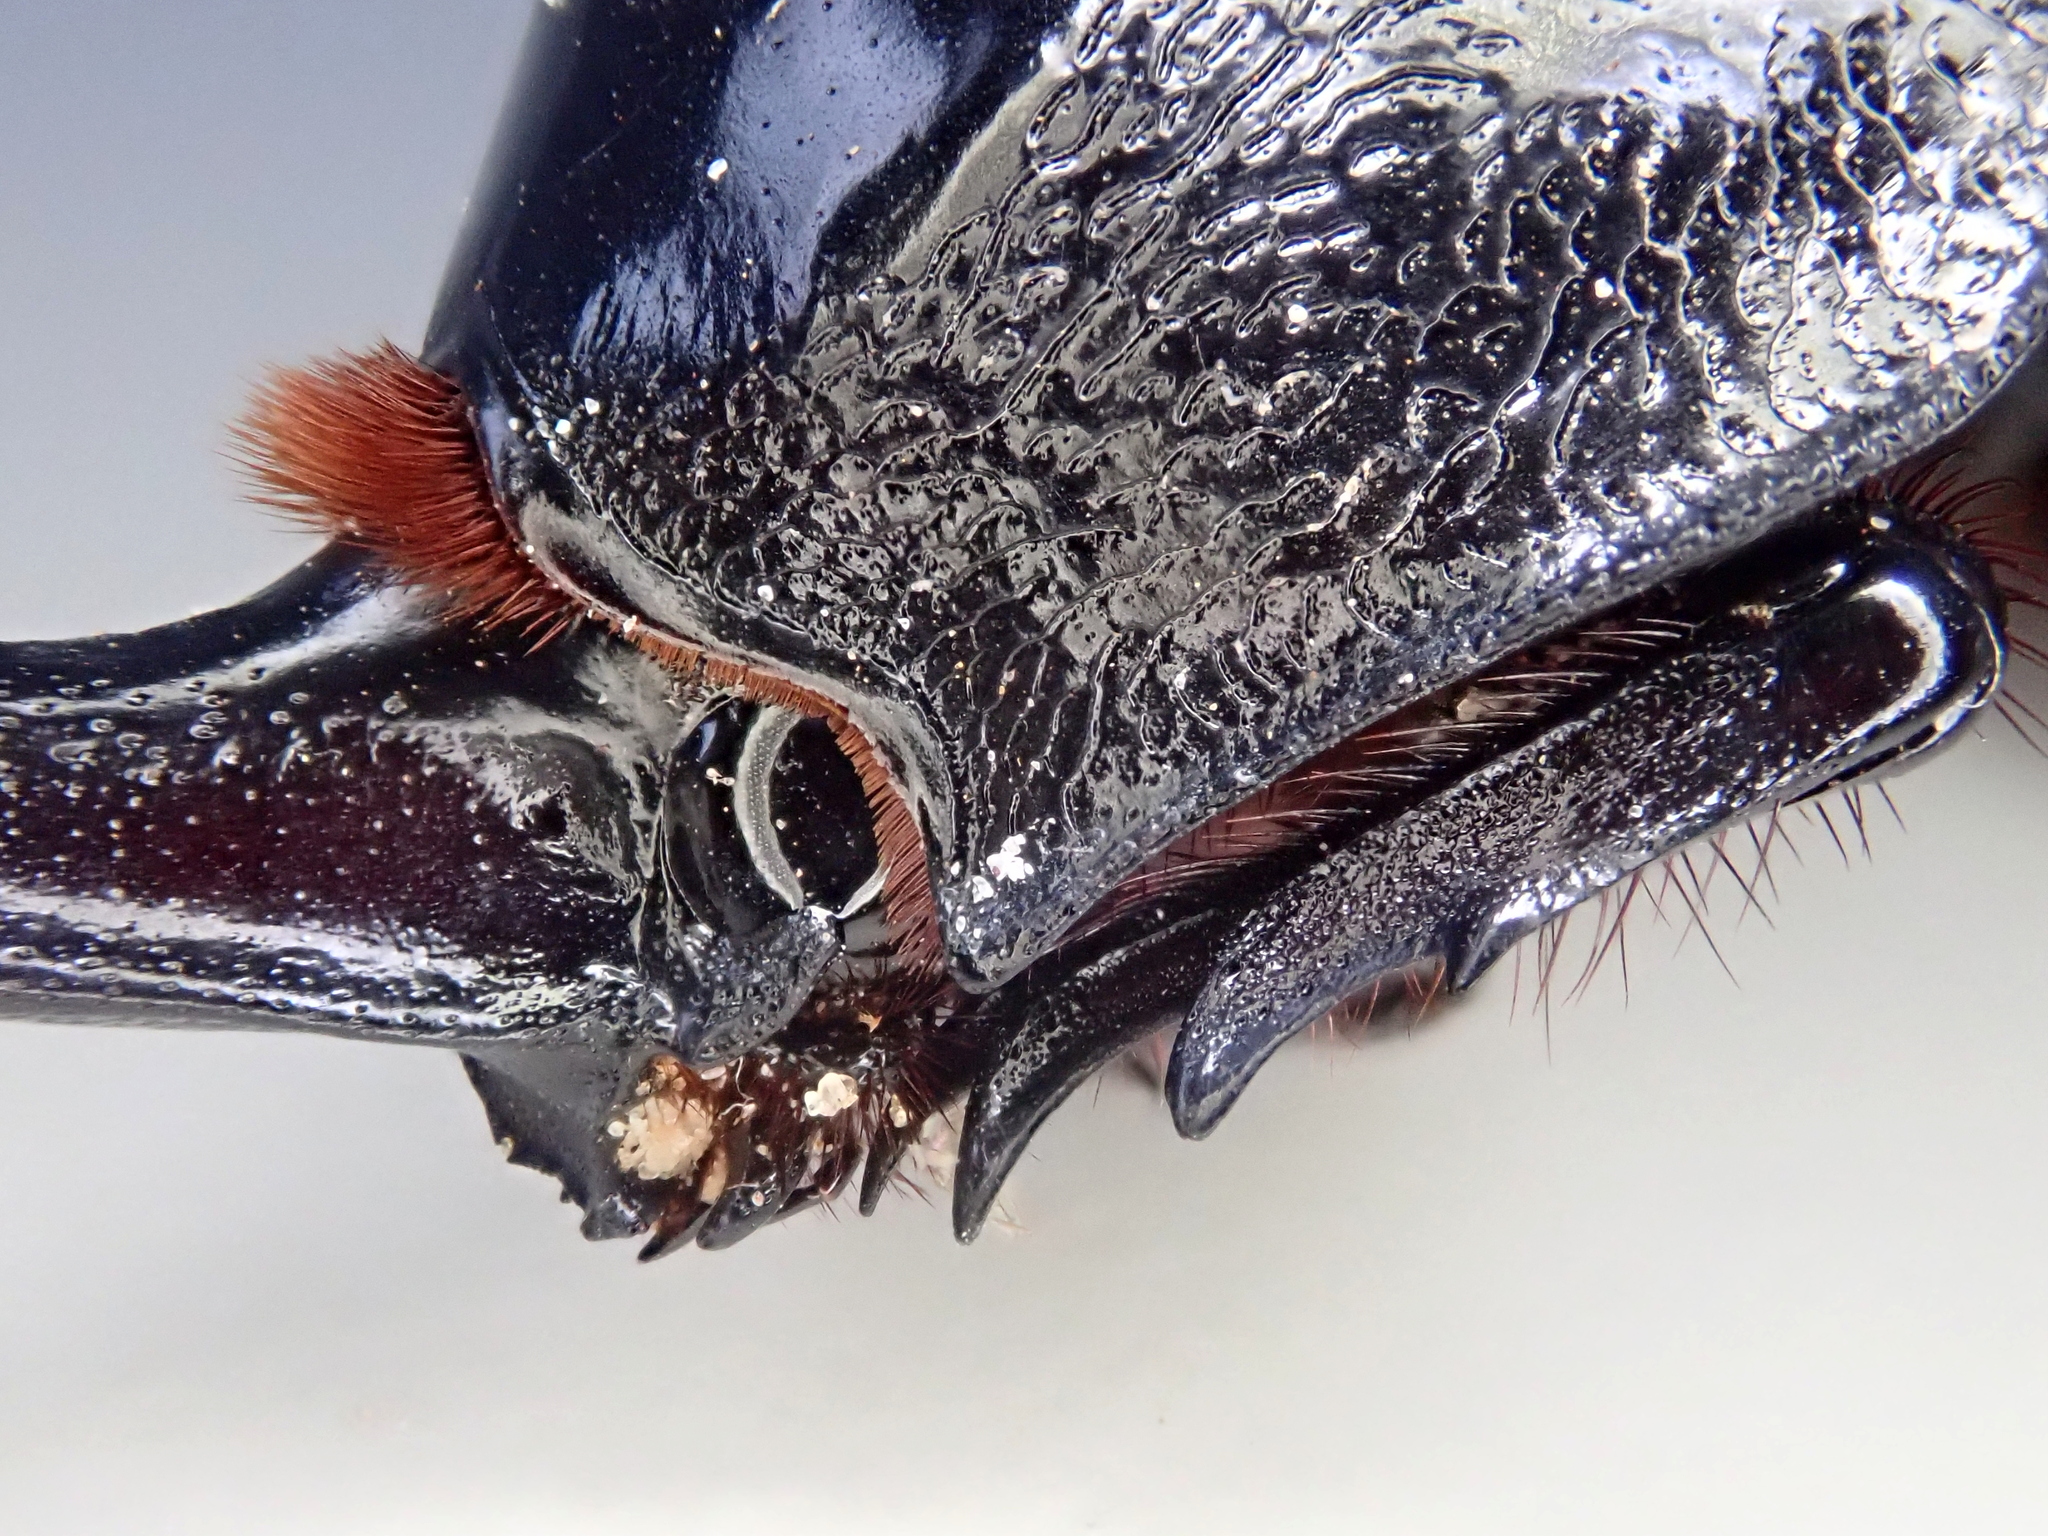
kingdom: Animalia
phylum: Arthropoda
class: Insecta
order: Coleoptera
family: Scarabaeidae
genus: Enema
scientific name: Enema pan
